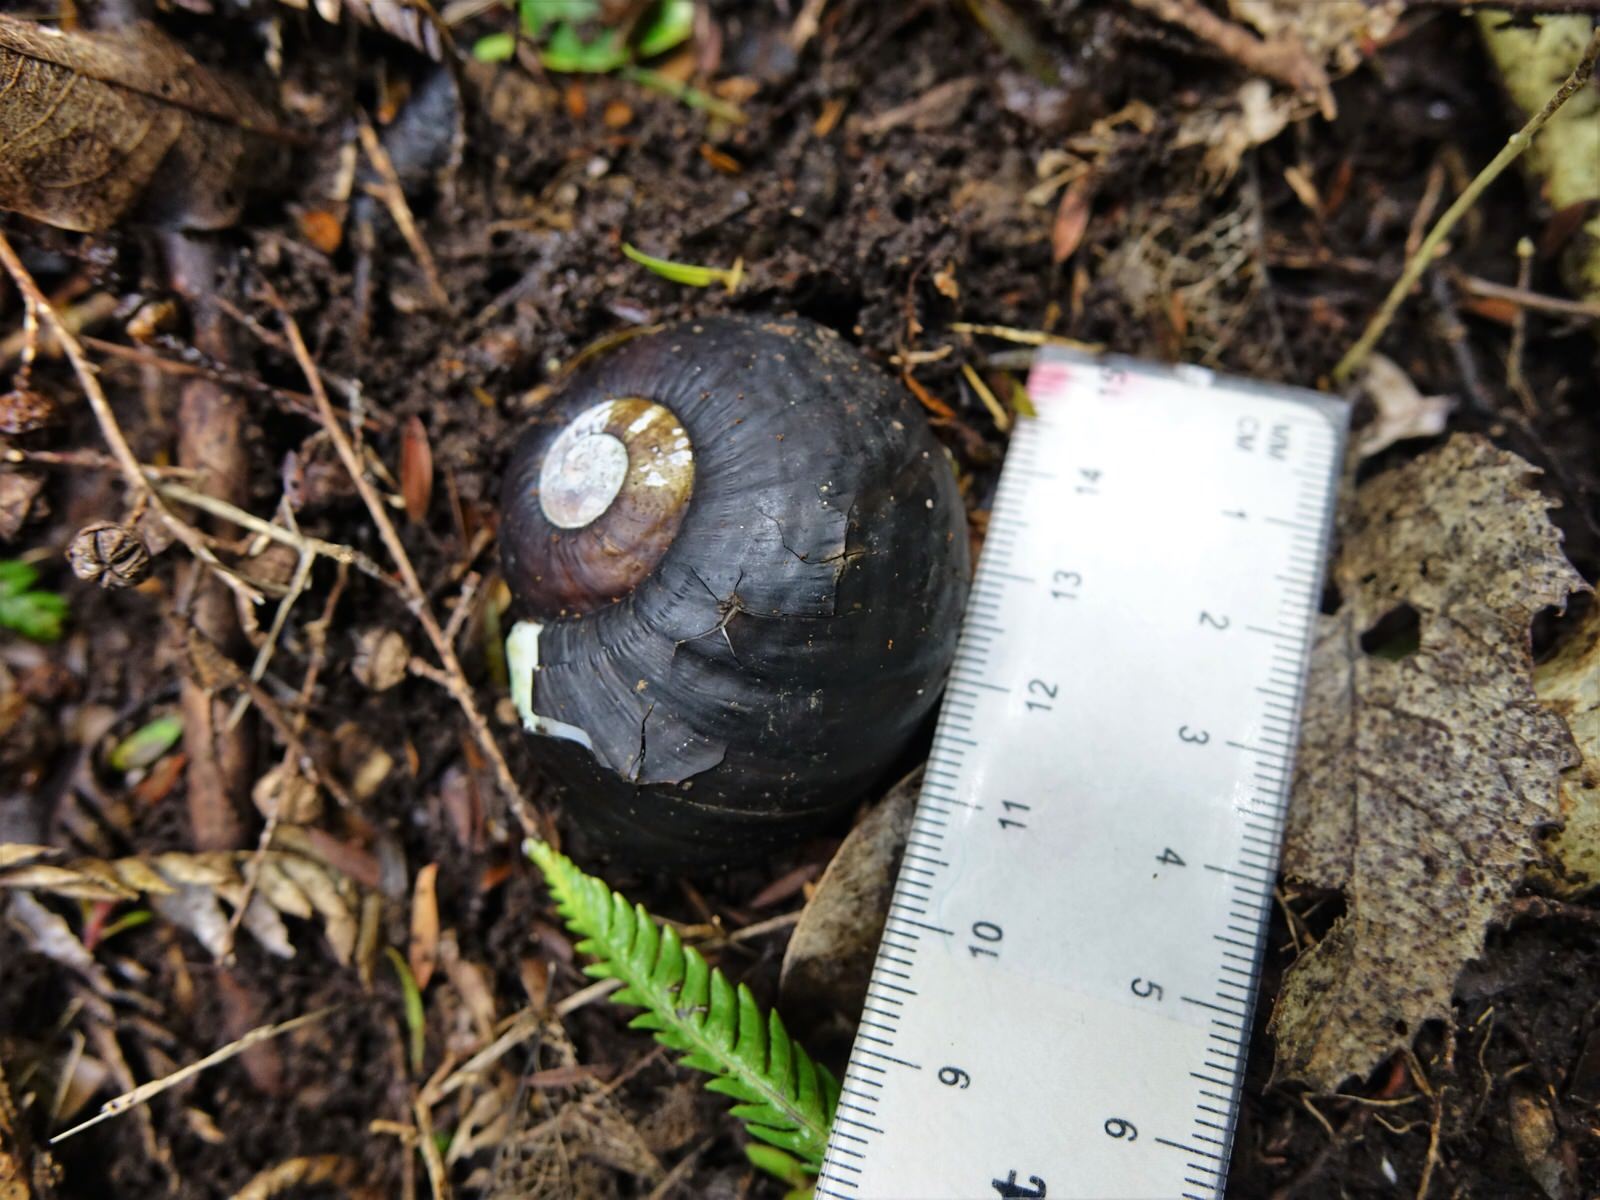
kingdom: Animalia
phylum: Mollusca
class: Gastropoda
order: Stylommatophora
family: Rhytididae
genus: Paryphanta
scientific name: Paryphanta busbyi
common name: Kauri snail
